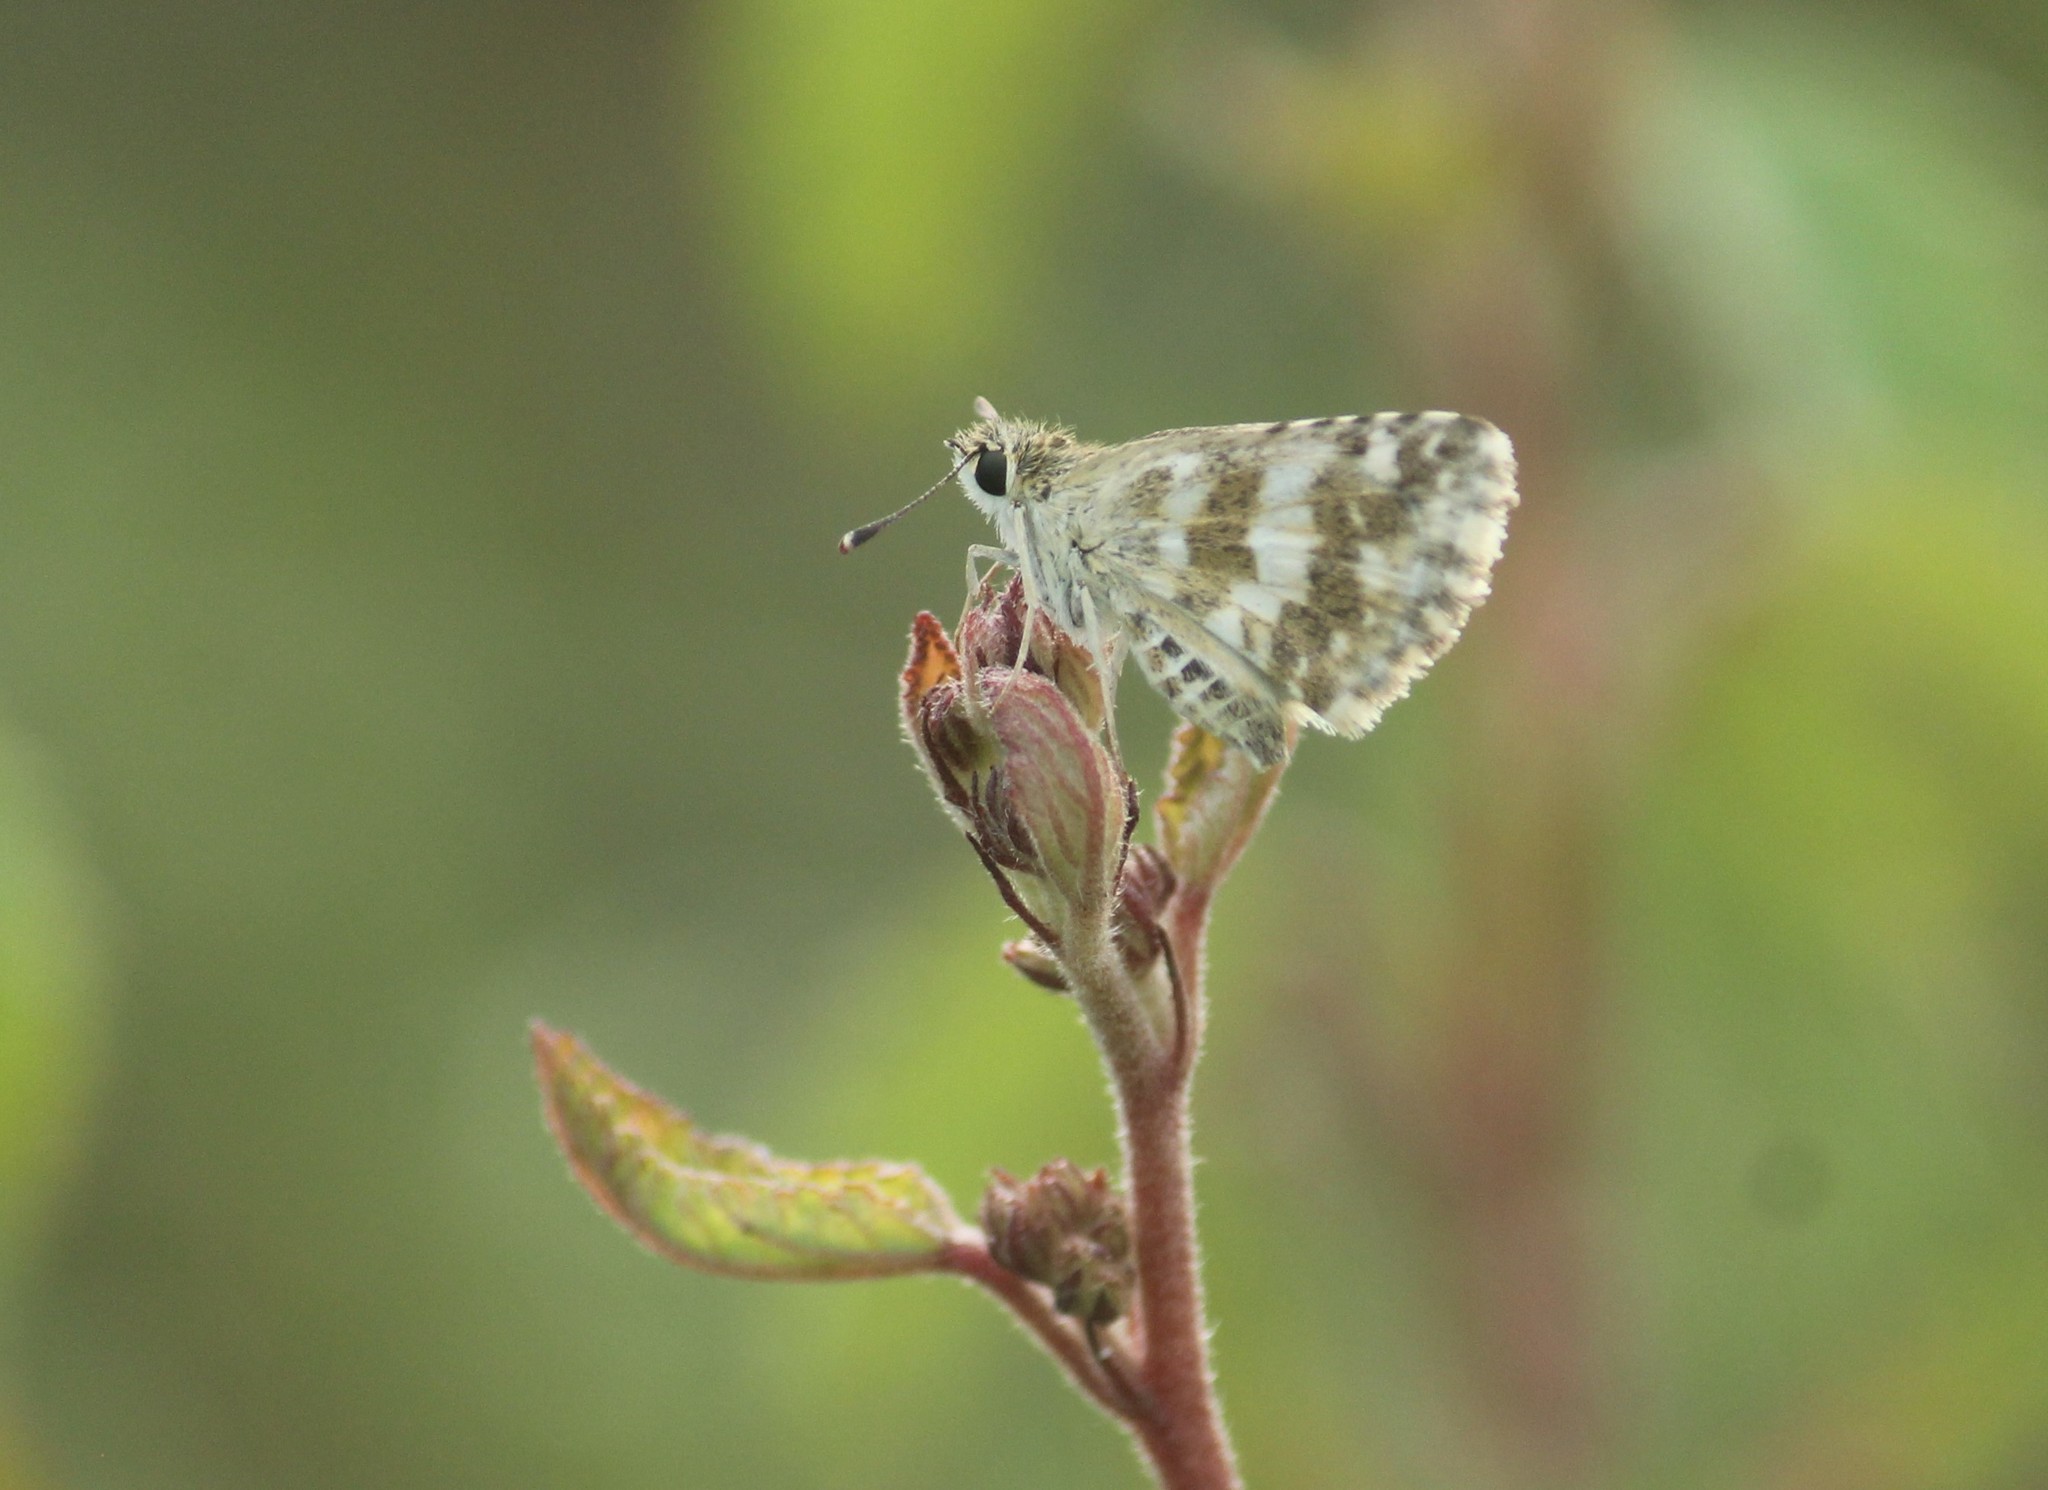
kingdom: Animalia
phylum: Arthropoda
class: Insecta
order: Lepidoptera
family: Hesperiidae
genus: Spialia
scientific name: Spialia galba
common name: Indian skipper
